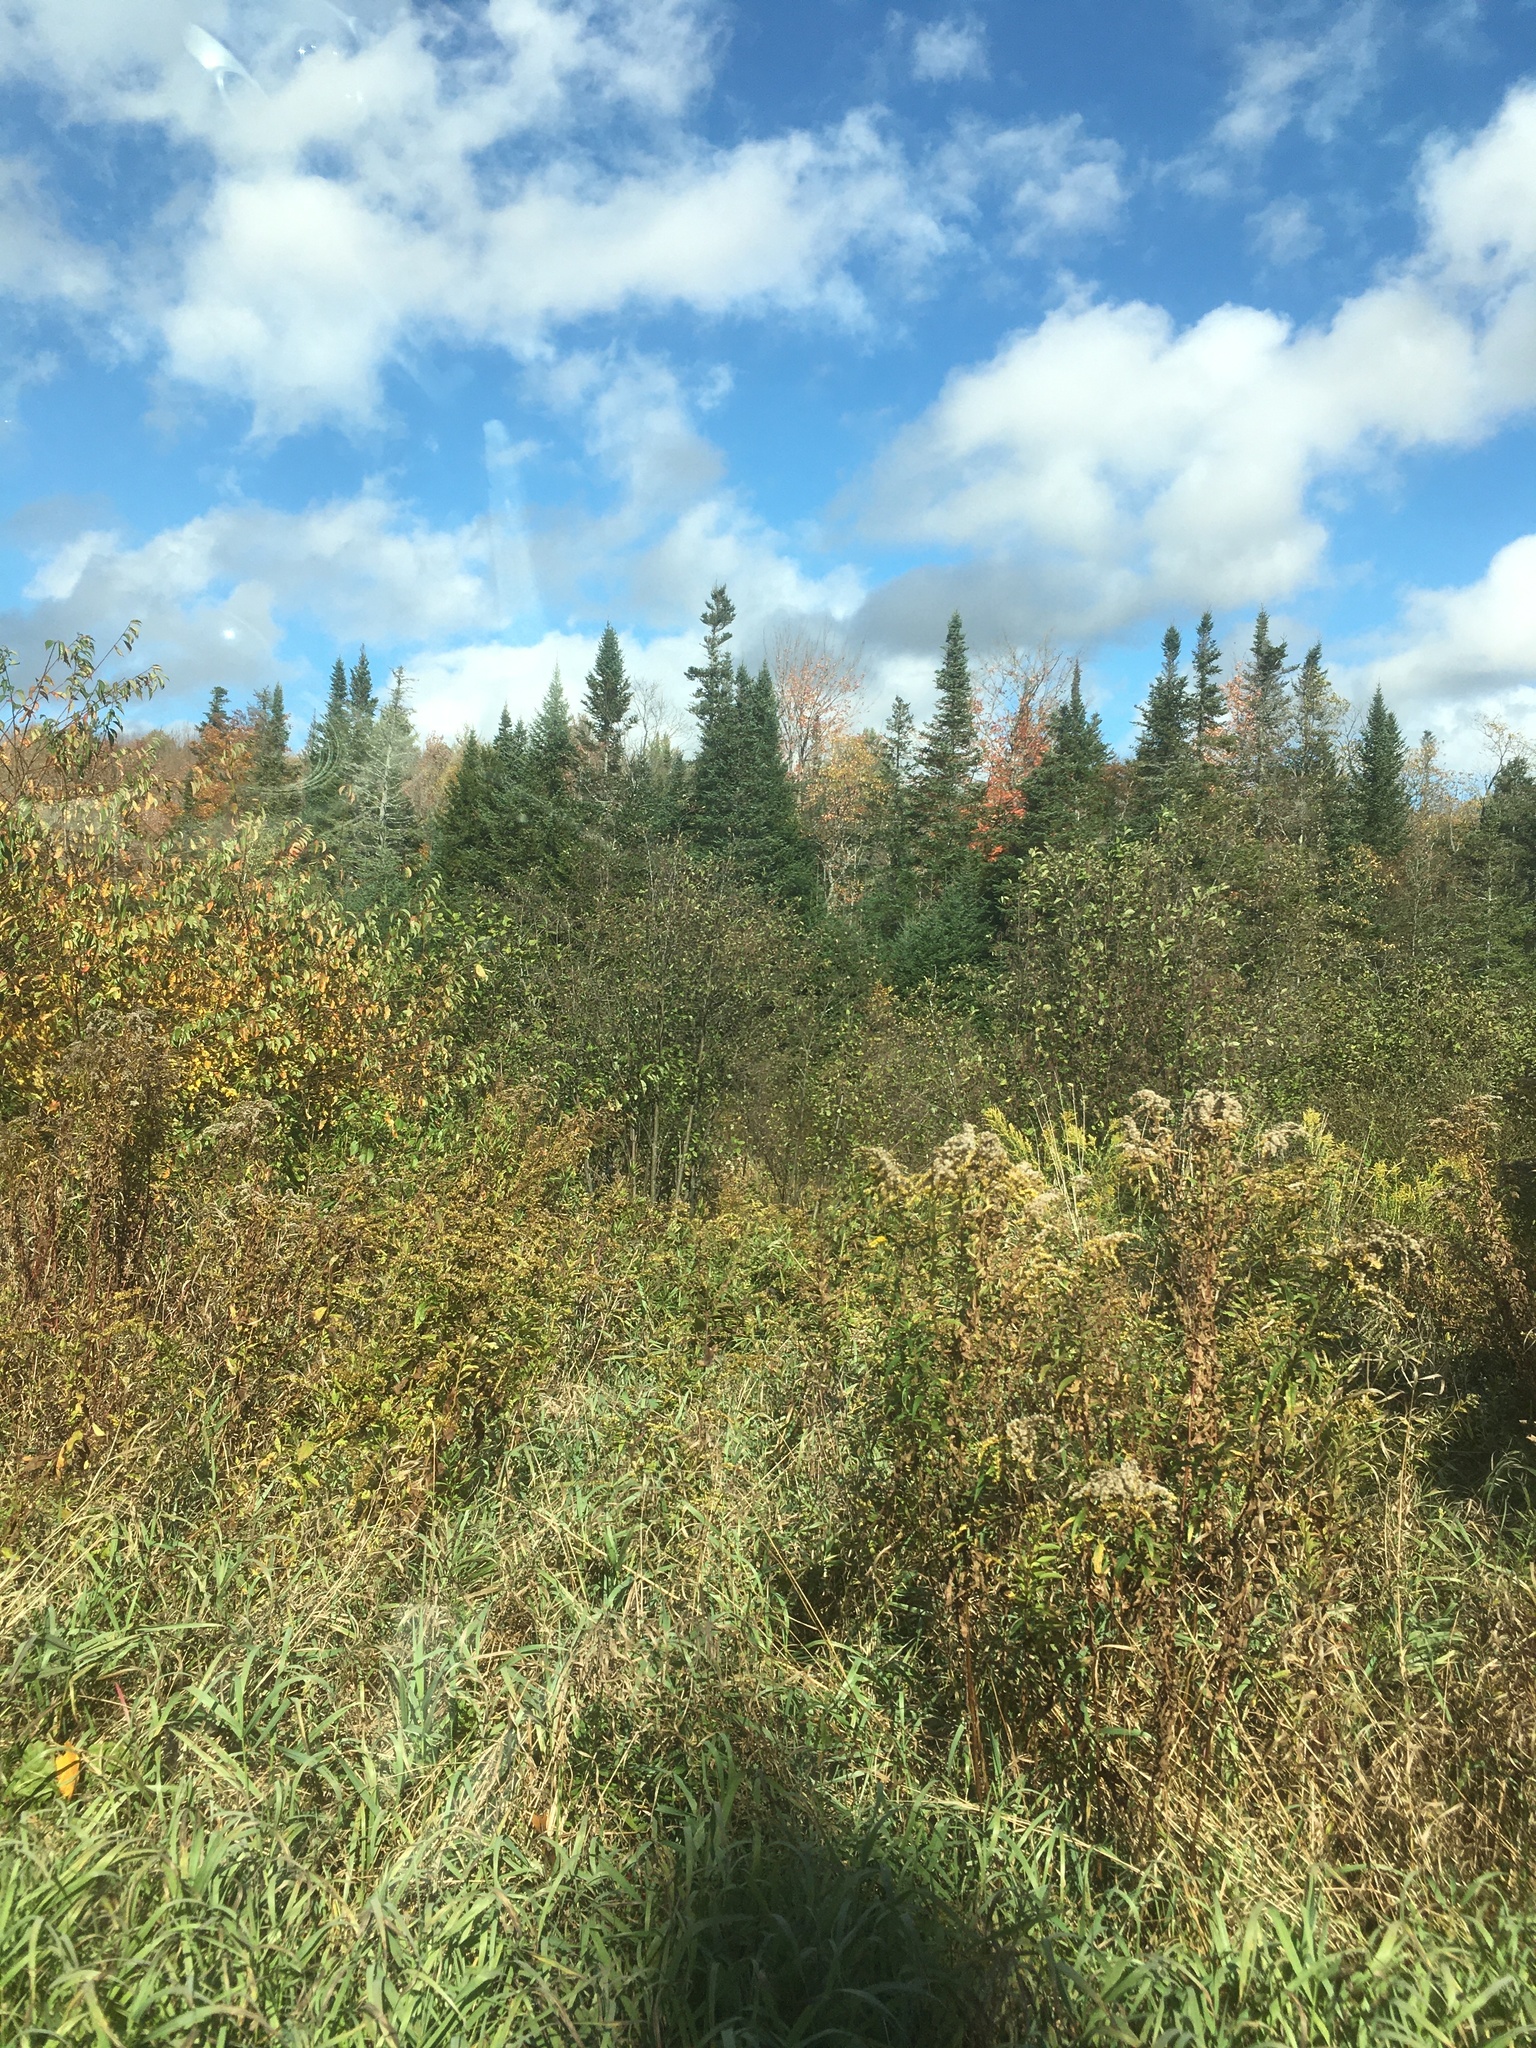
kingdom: Plantae
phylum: Tracheophyta
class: Pinopsida
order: Pinales
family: Pinaceae
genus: Abies
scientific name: Abies balsamea
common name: Balsam fir
